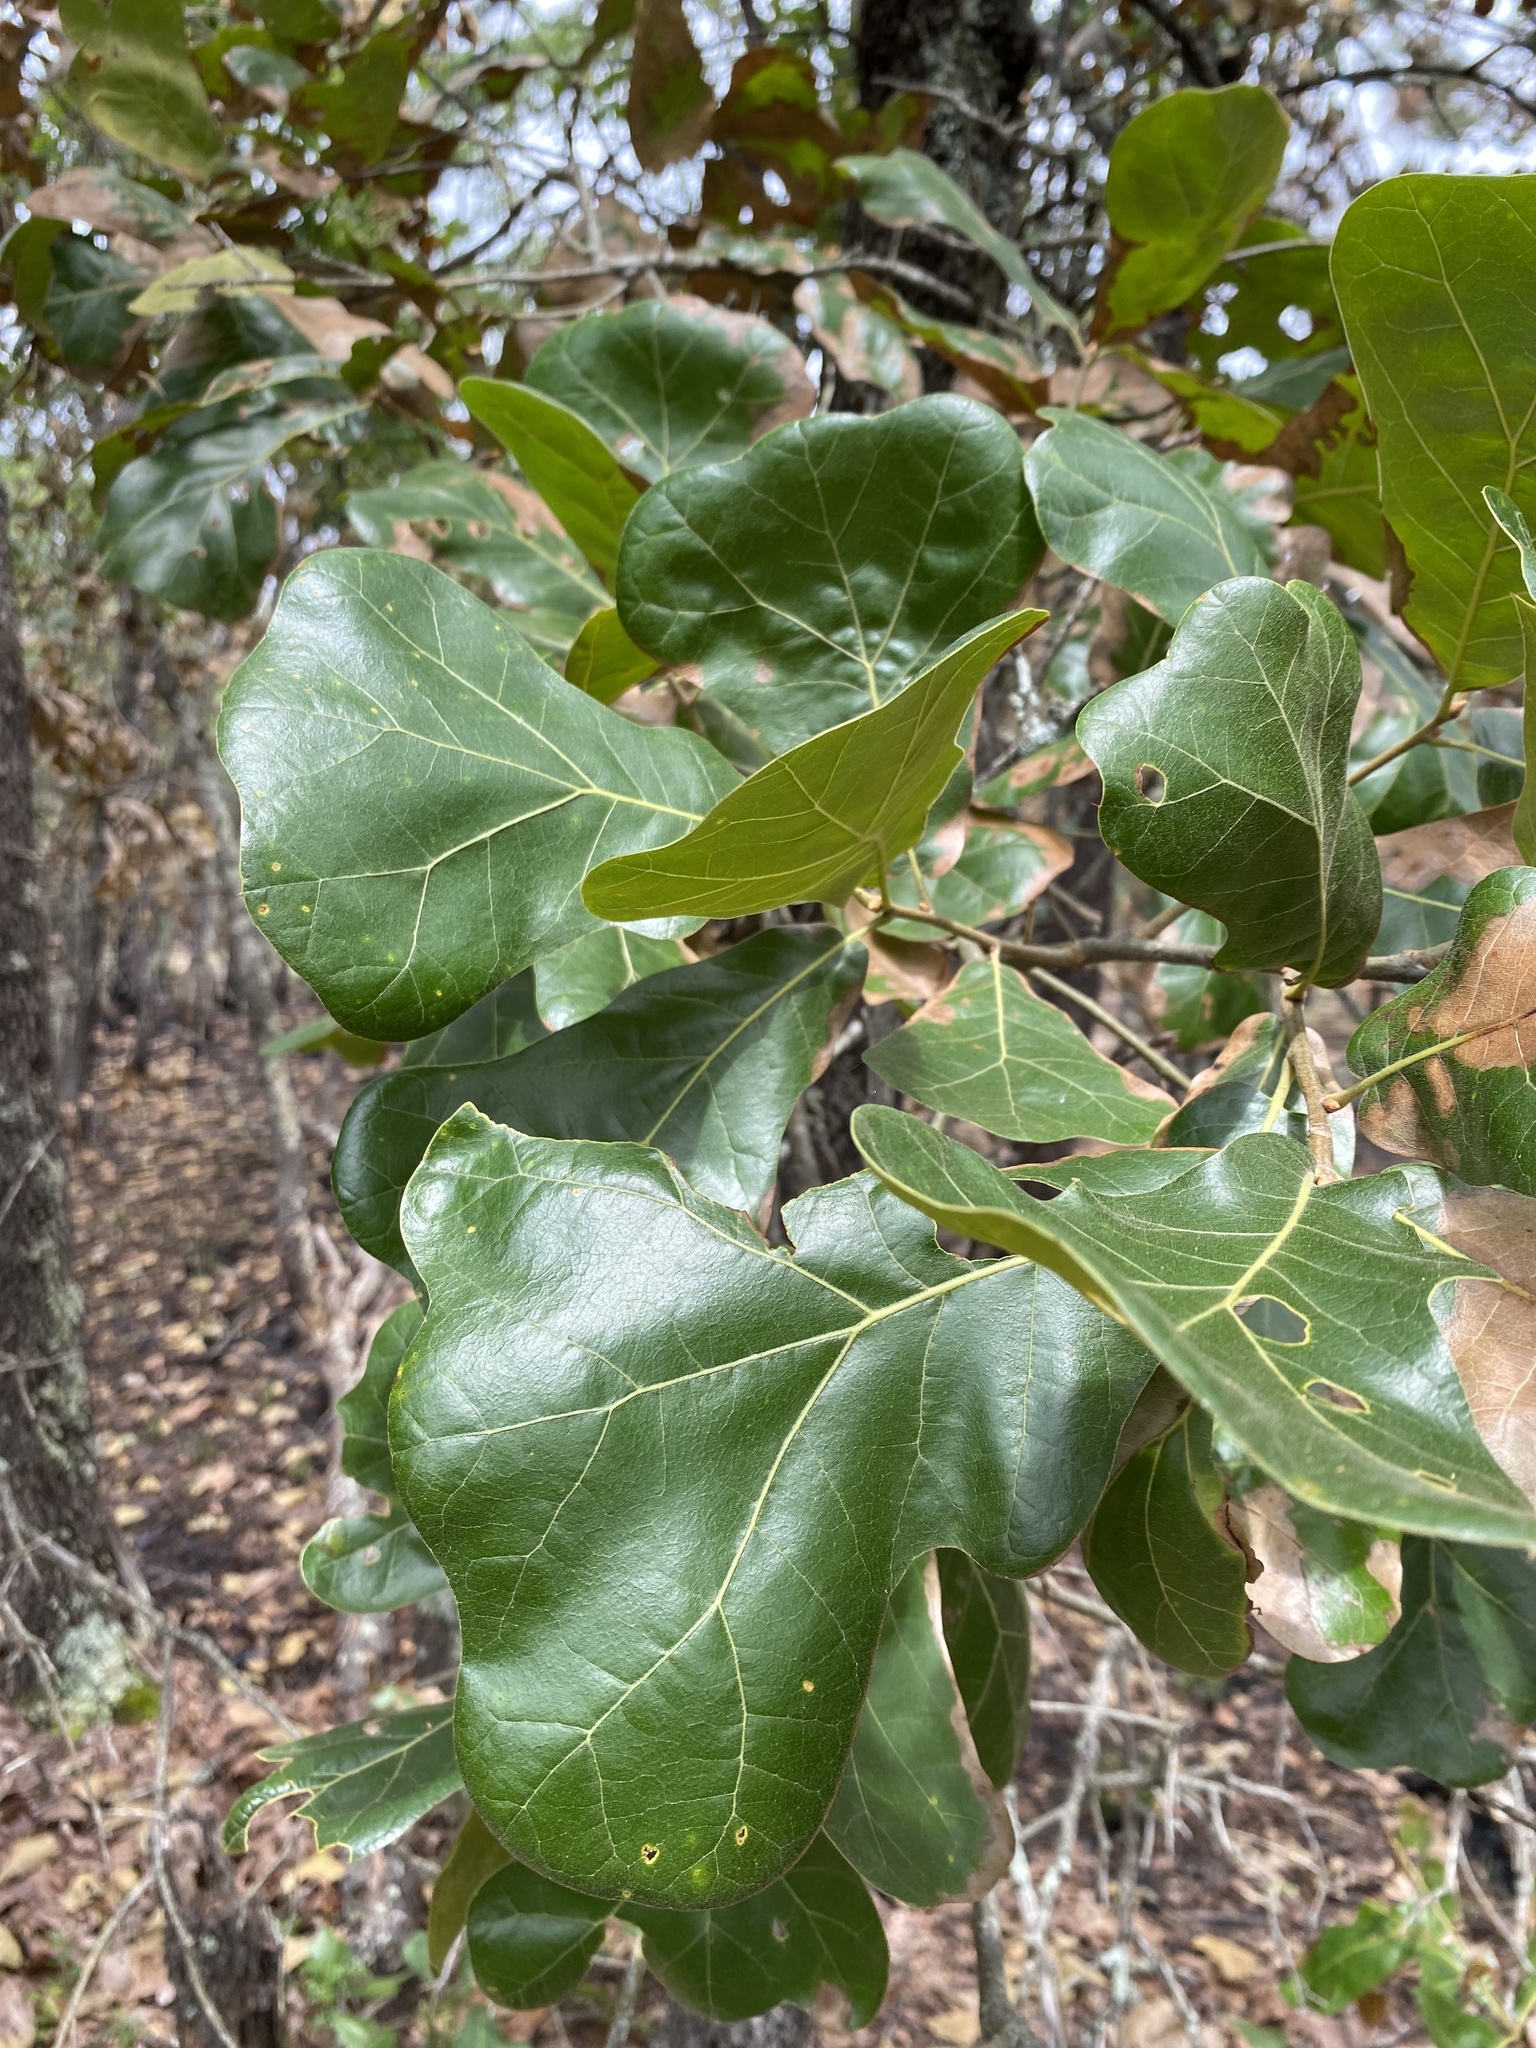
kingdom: Plantae
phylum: Tracheophyta
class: Magnoliopsida
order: Fagales
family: Fagaceae
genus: Quercus
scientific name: Quercus marilandica
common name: Blackjack oak
